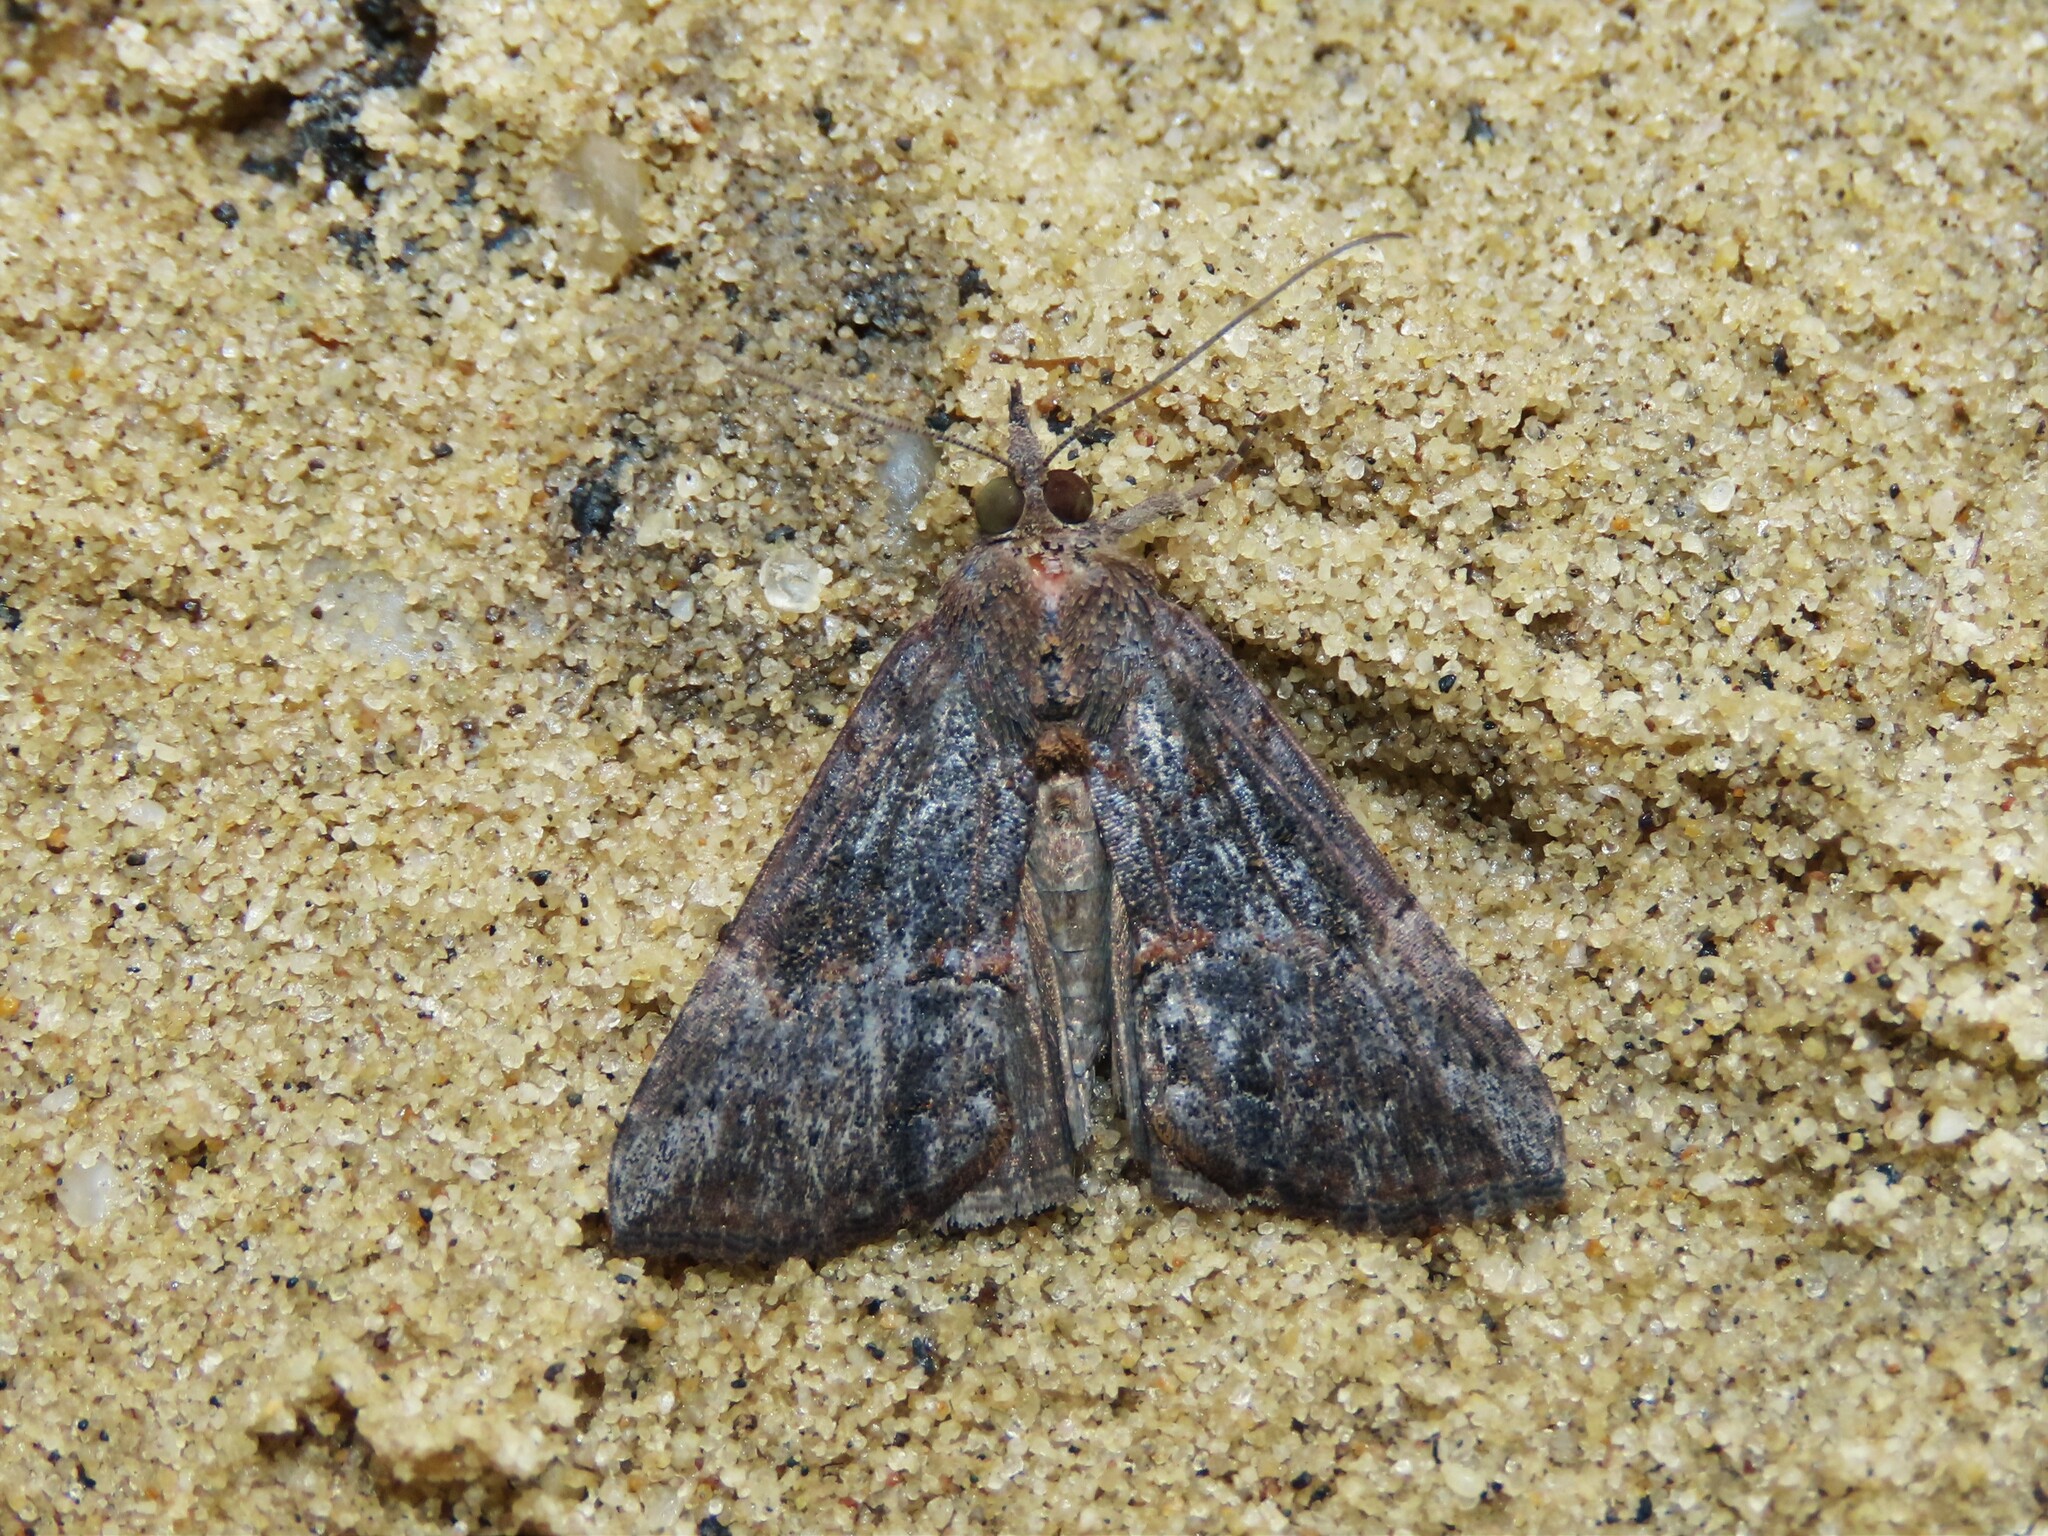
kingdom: Animalia
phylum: Arthropoda
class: Insecta
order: Lepidoptera
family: Erebidae
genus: Hypena
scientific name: Hypena scabra
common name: Green cloverworm
